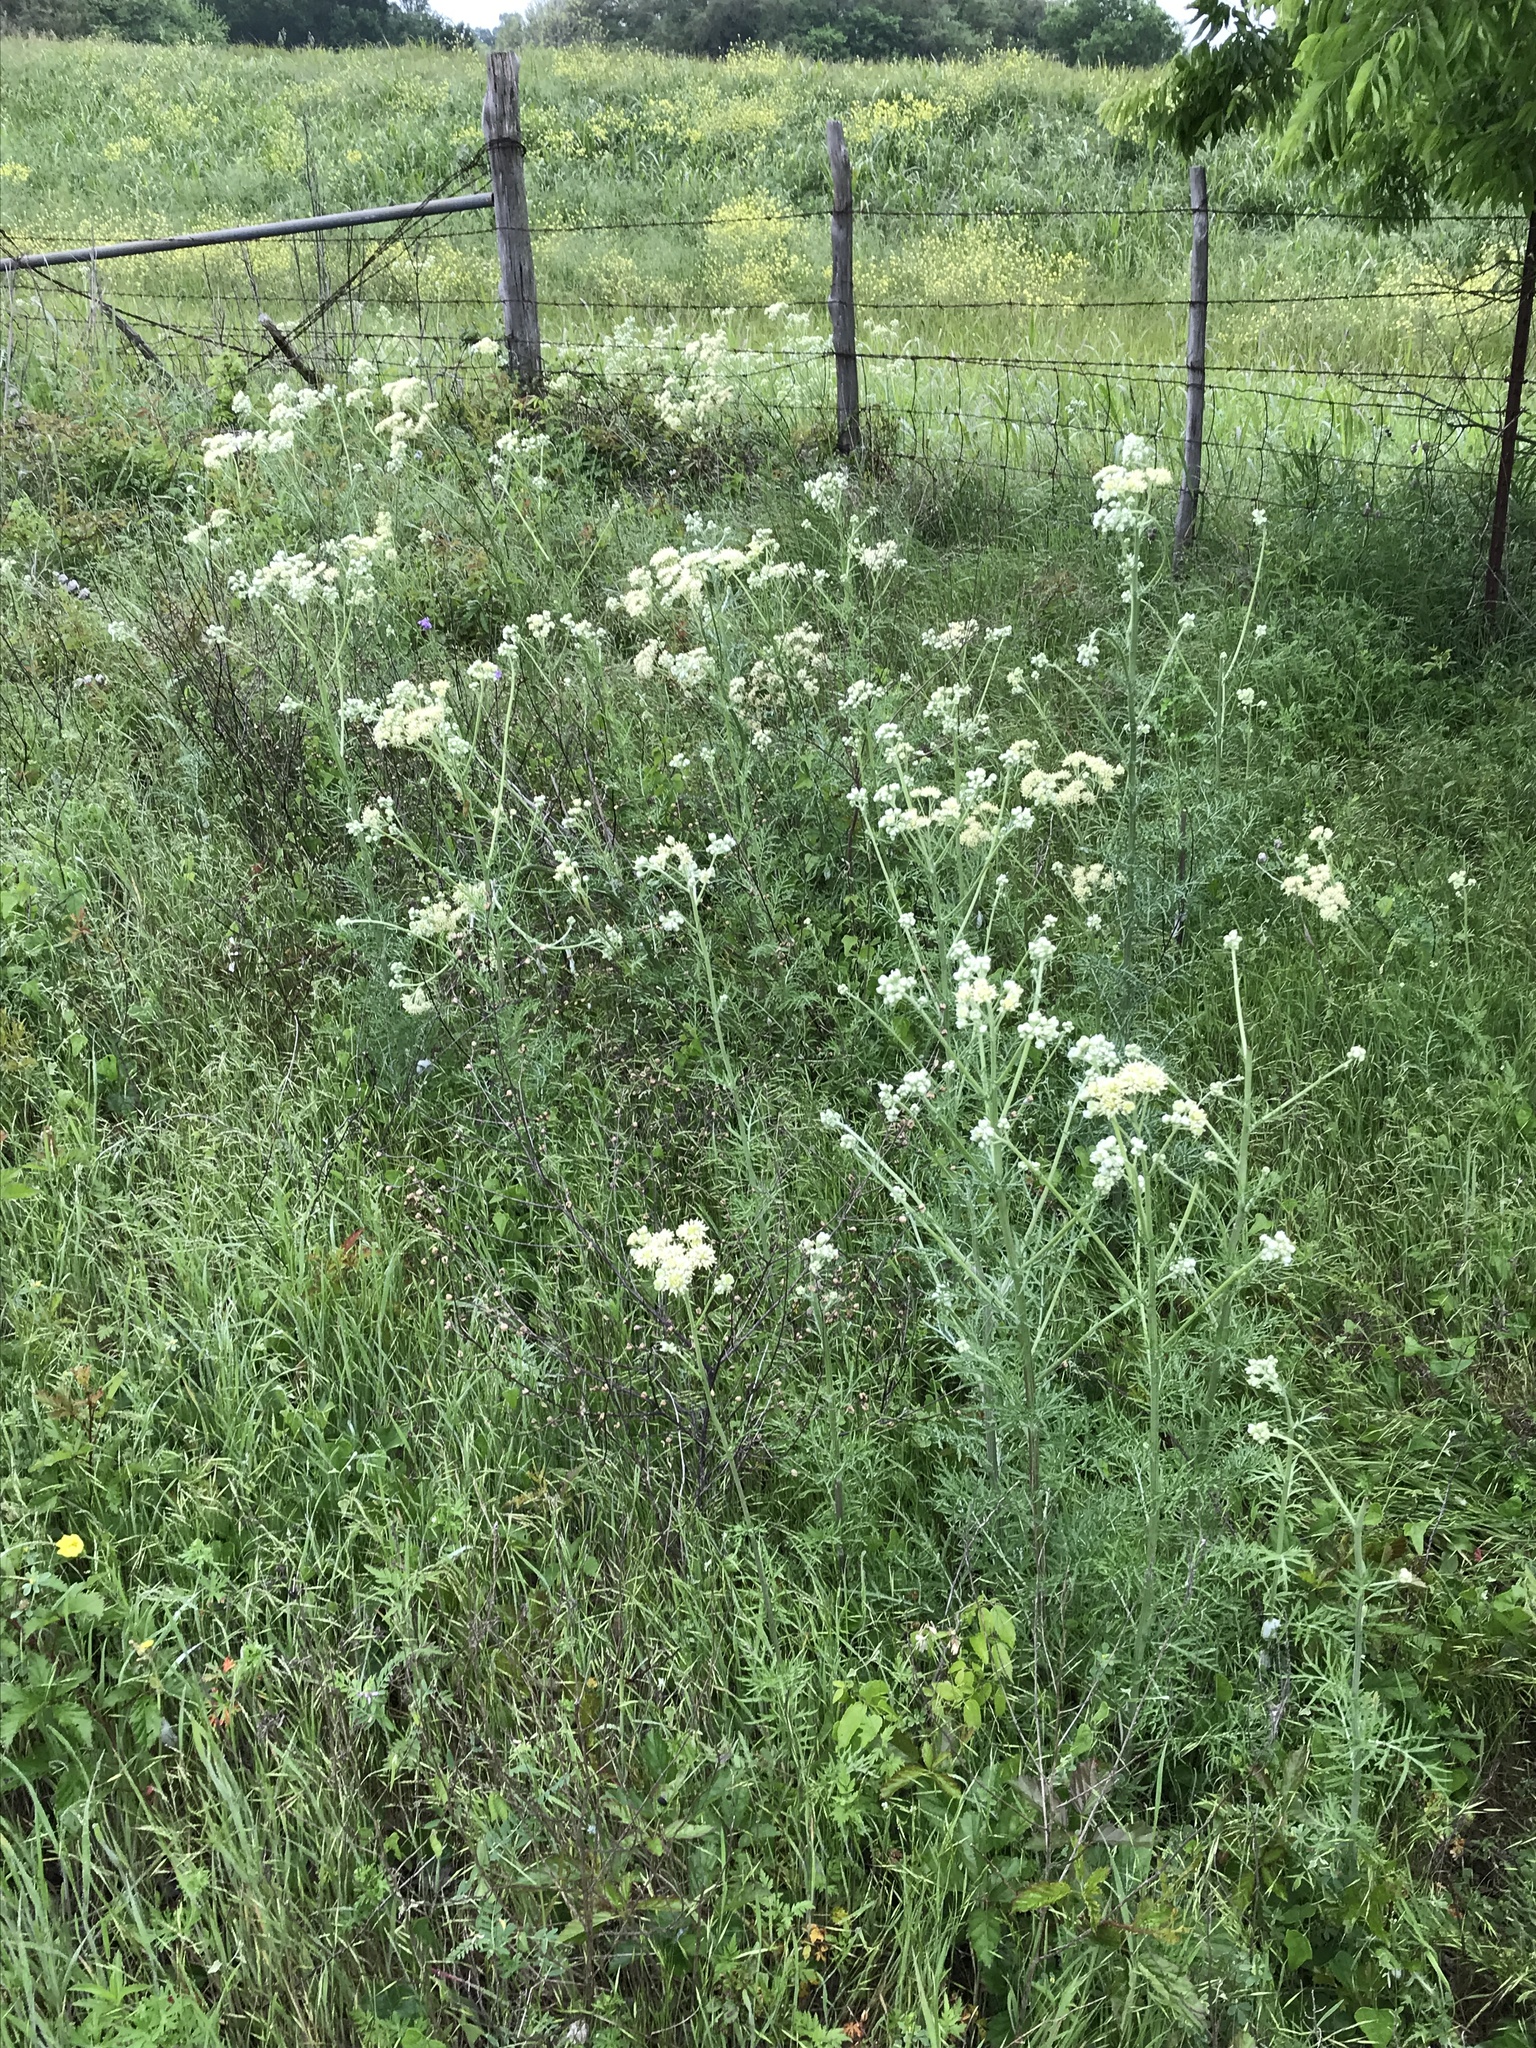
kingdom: Plantae
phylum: Tracheophyta
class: Magnoliopsida
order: Asterales
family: Asteraceae
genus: Hymenopappus
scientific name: Hymenopappus scabiosaeus
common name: Carolina woollywhite
